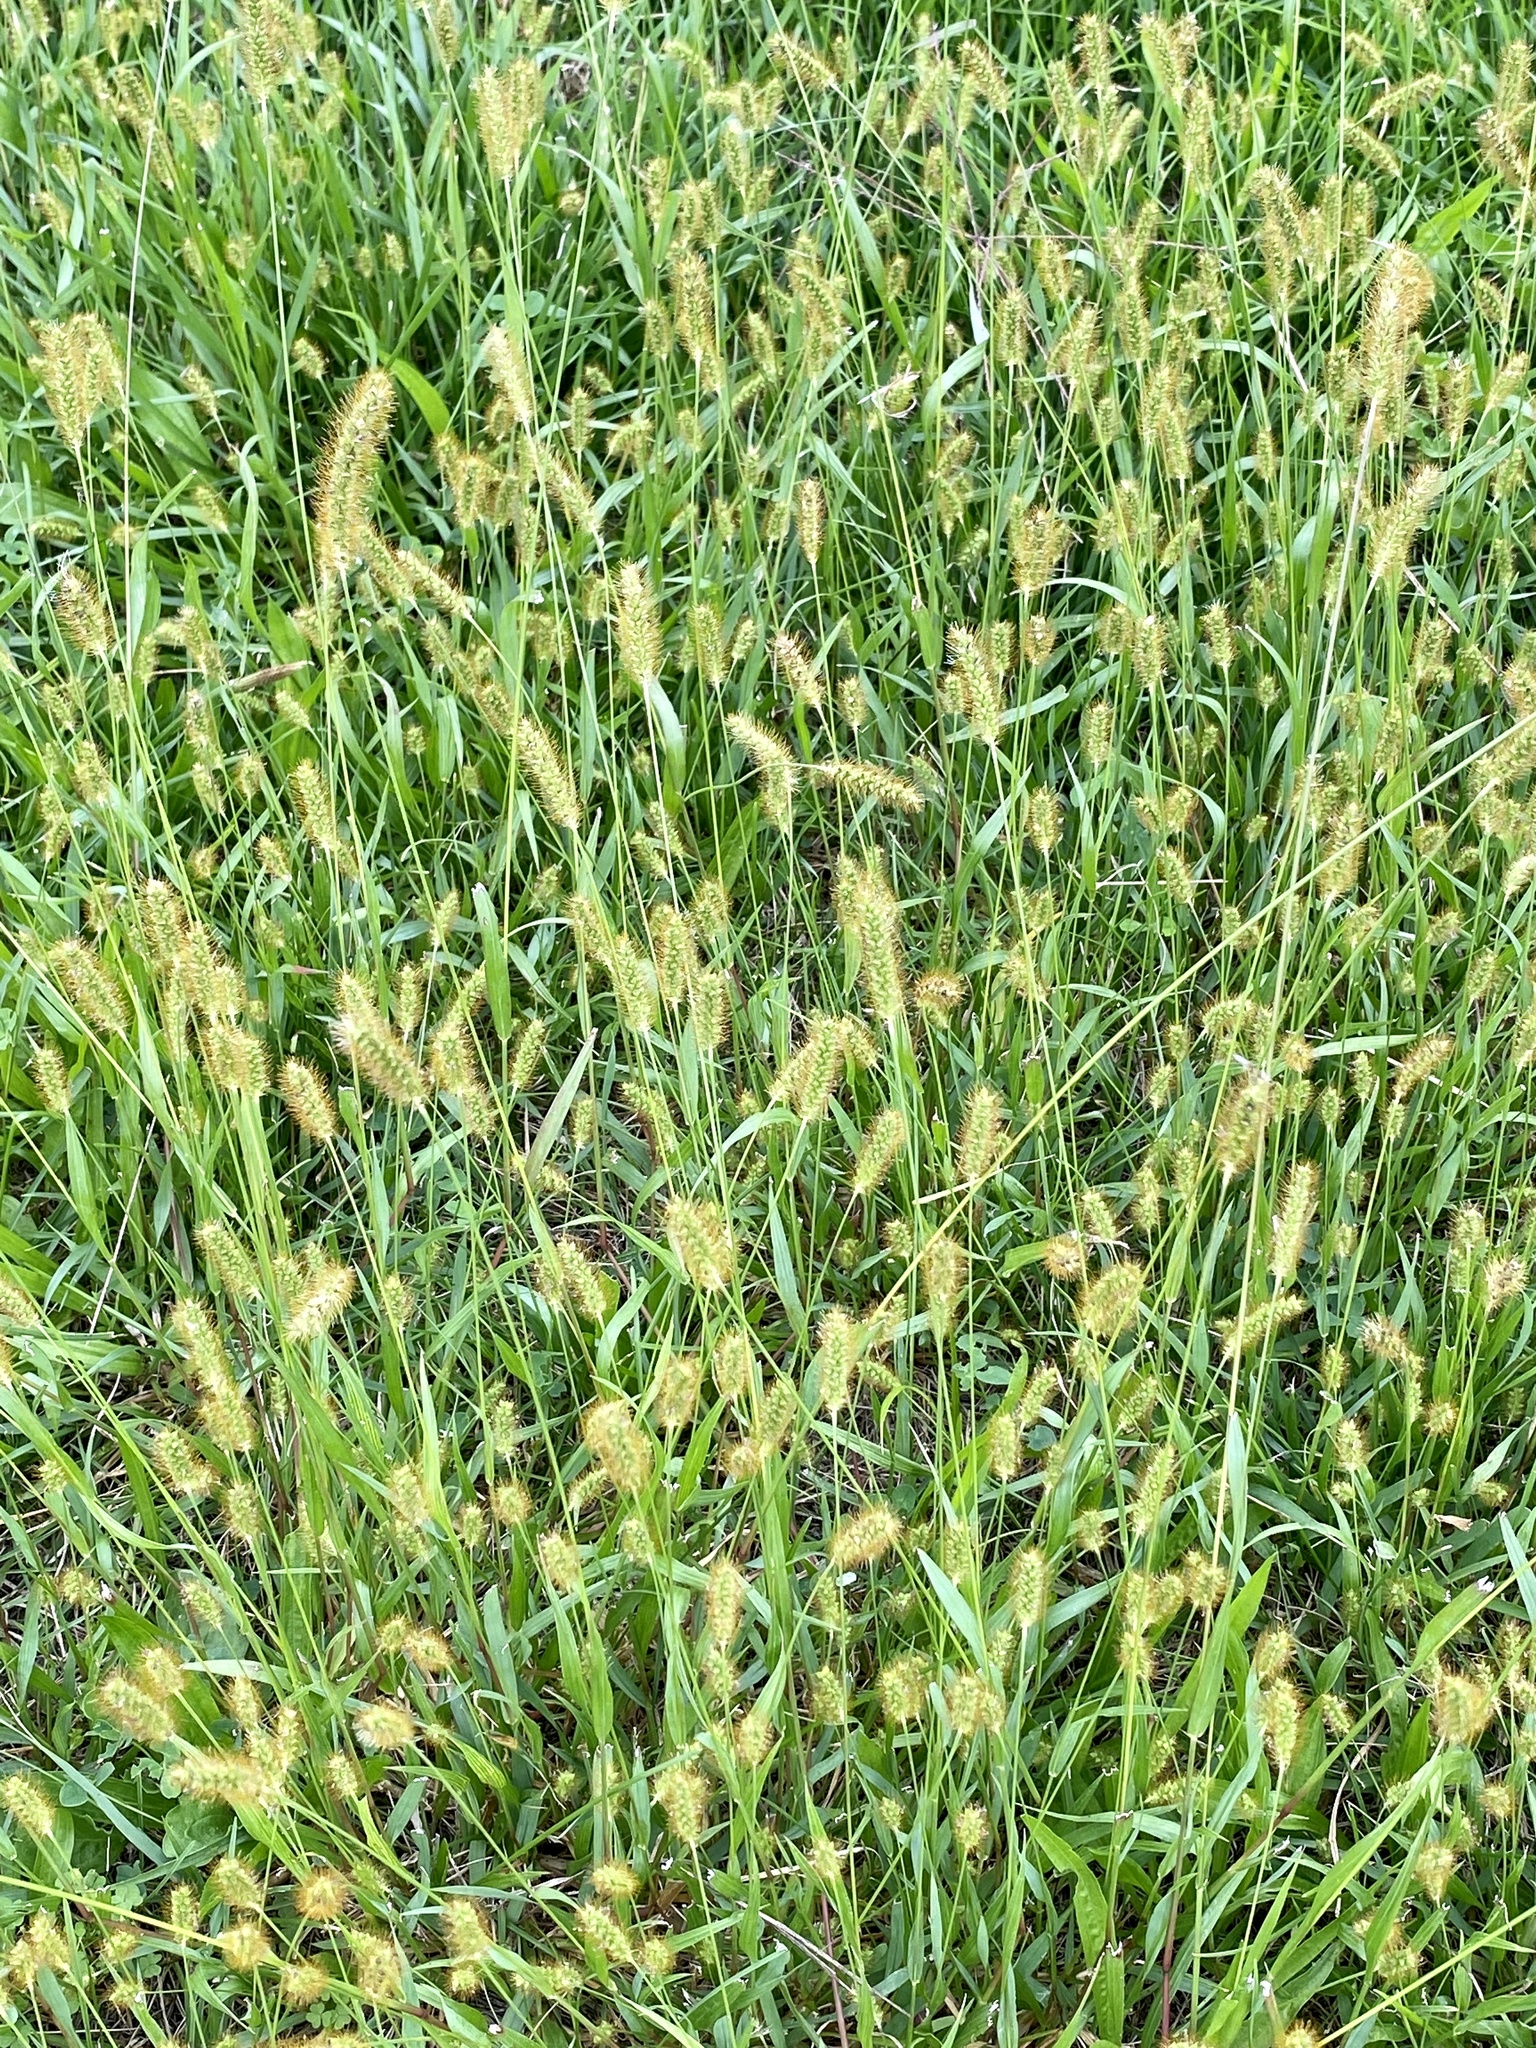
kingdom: Plantae
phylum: Tracheophyta
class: Liliopsida
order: Poales
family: Poaceae
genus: Setaria
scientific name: Setaria pumila
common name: Yellow bristle-grass
